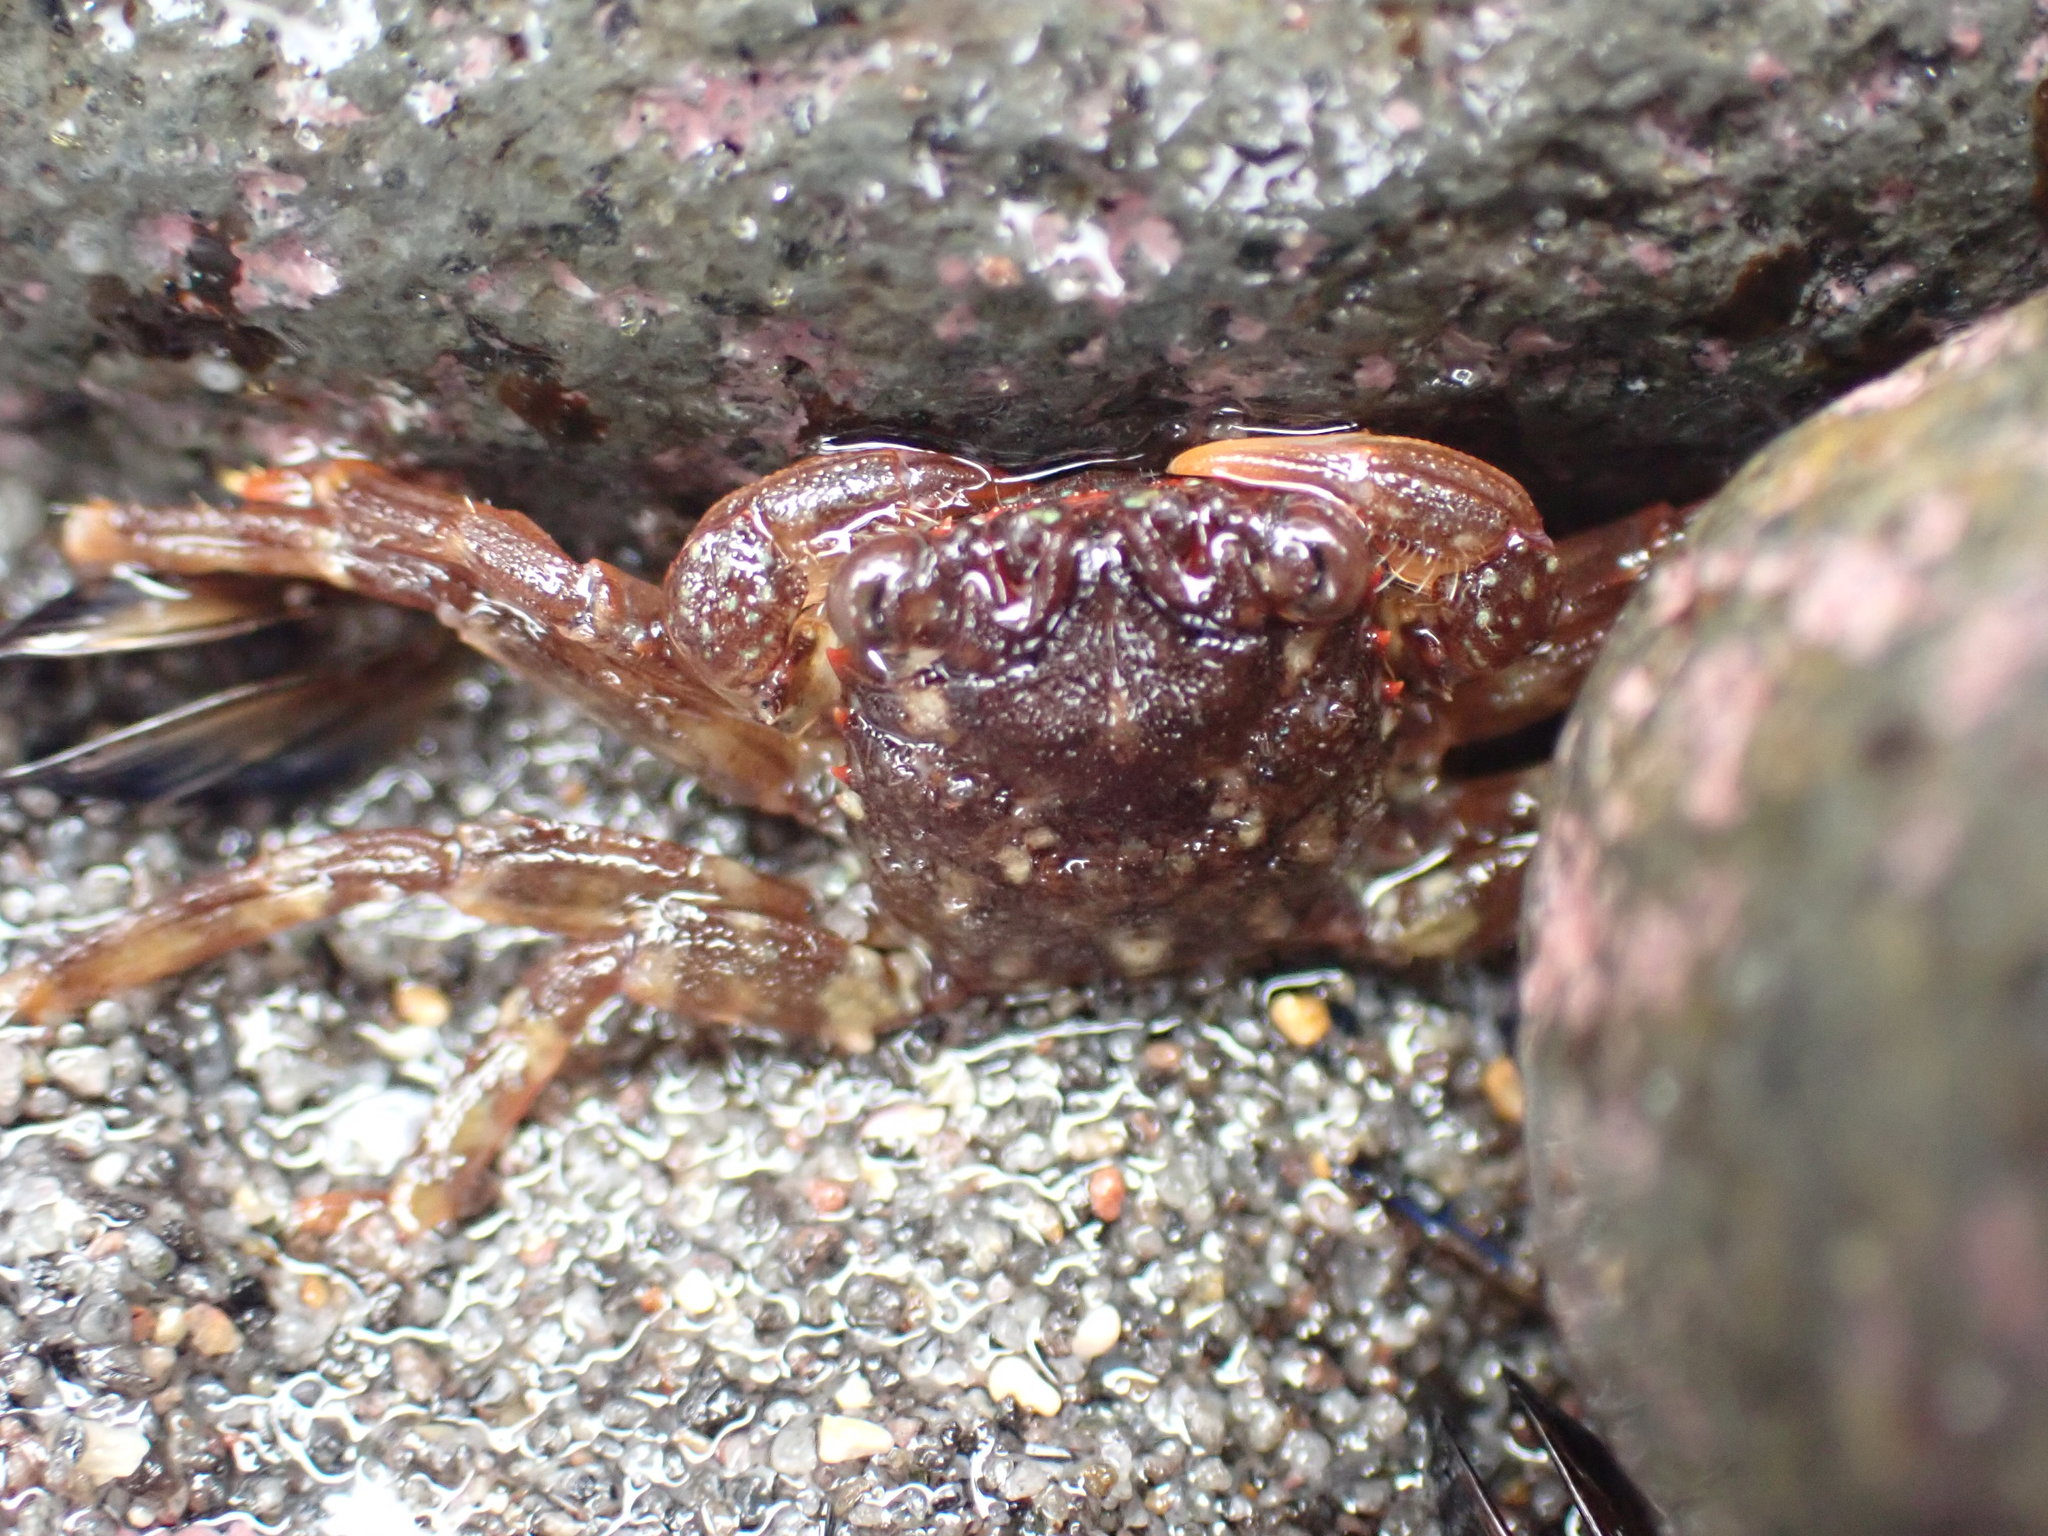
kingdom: Animalia
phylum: Arthropoda
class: Malacostraca
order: Decapoda
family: Plagusiidae
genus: Guinusia
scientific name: Guinusia chabrus
